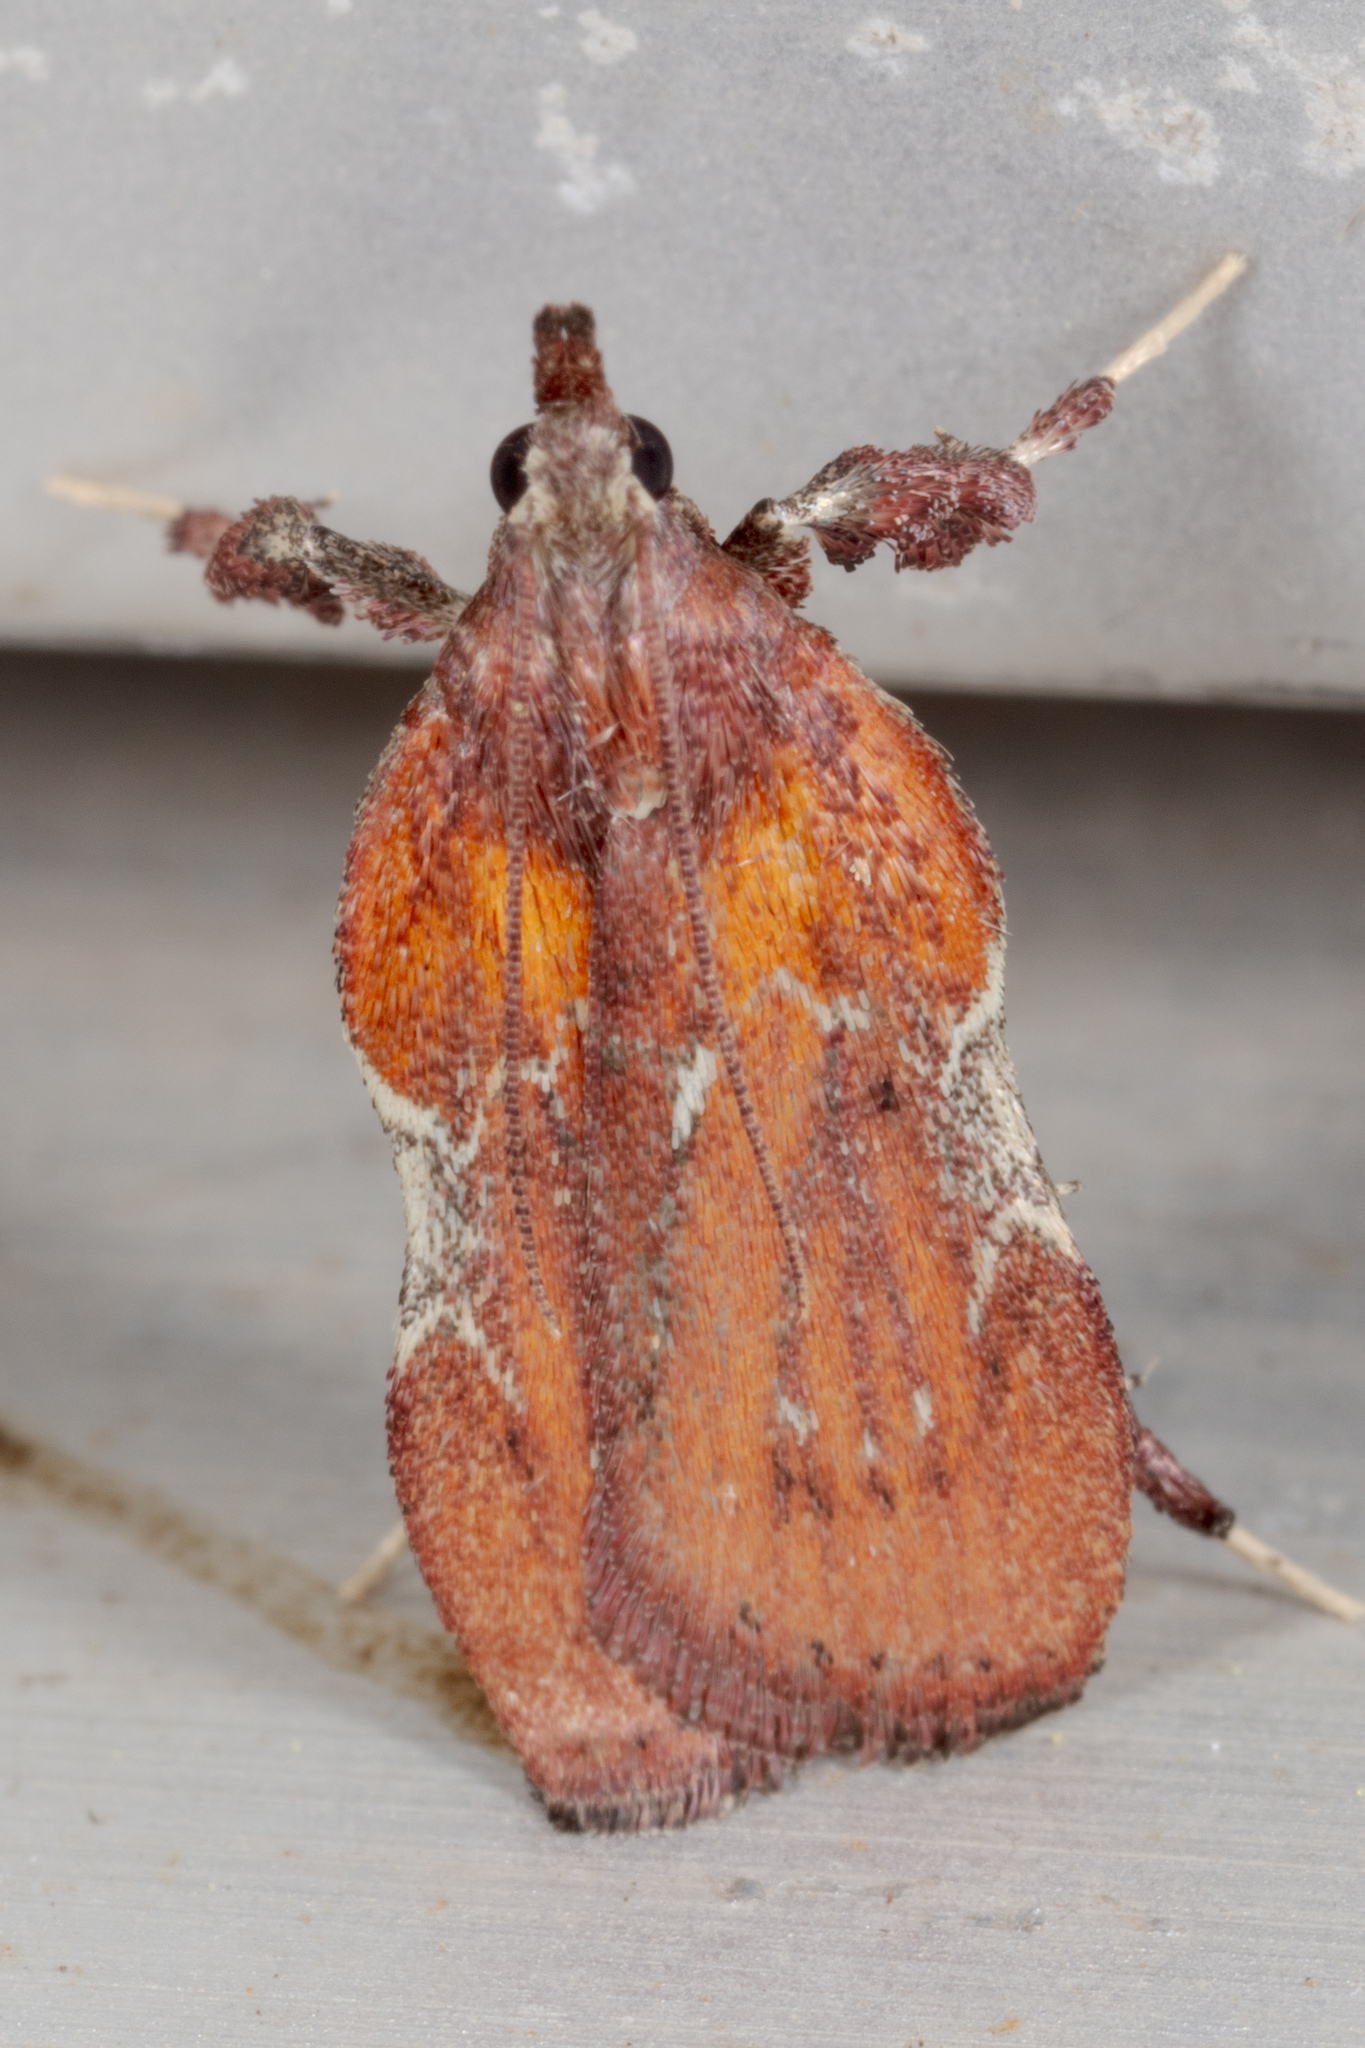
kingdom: Animalia
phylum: Arthropoda
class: Insecta
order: Lepidoptera
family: Pyralidae
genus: Galasa
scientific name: Galasa nigrinodis
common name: Boxwood leaftier moth
